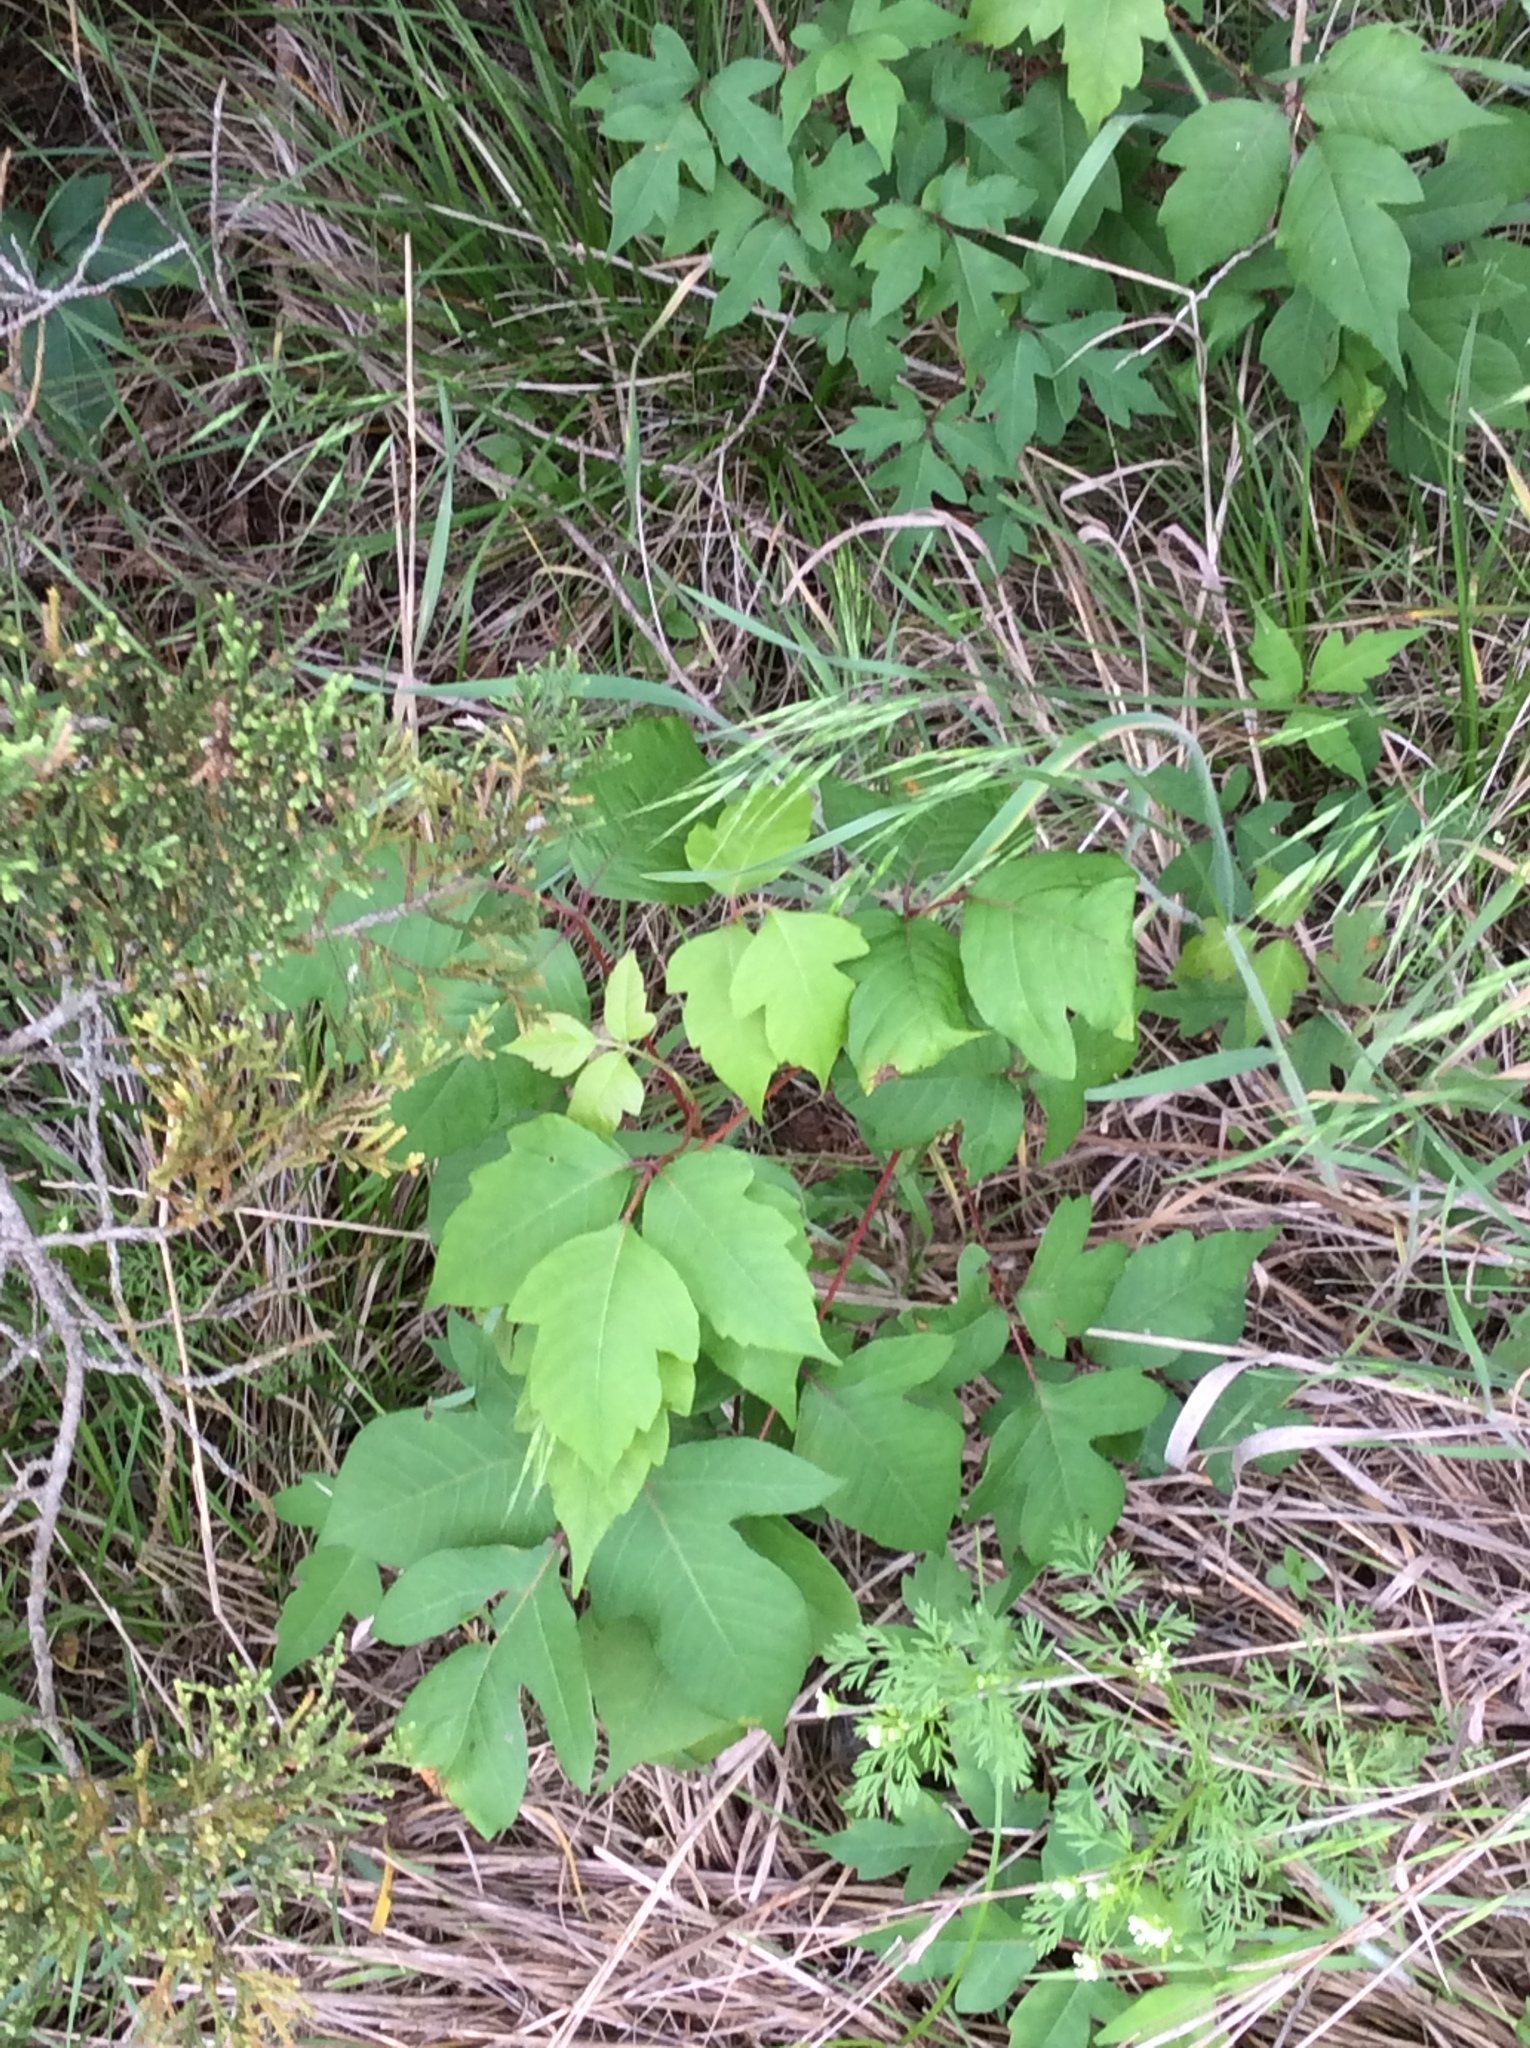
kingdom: Plantae
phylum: Tracheophyta
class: Magnoliopsida
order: Sapindales
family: Anacardiaceae
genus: Toxicodendron
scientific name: Toxicodendron radicans
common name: Poison ivy
